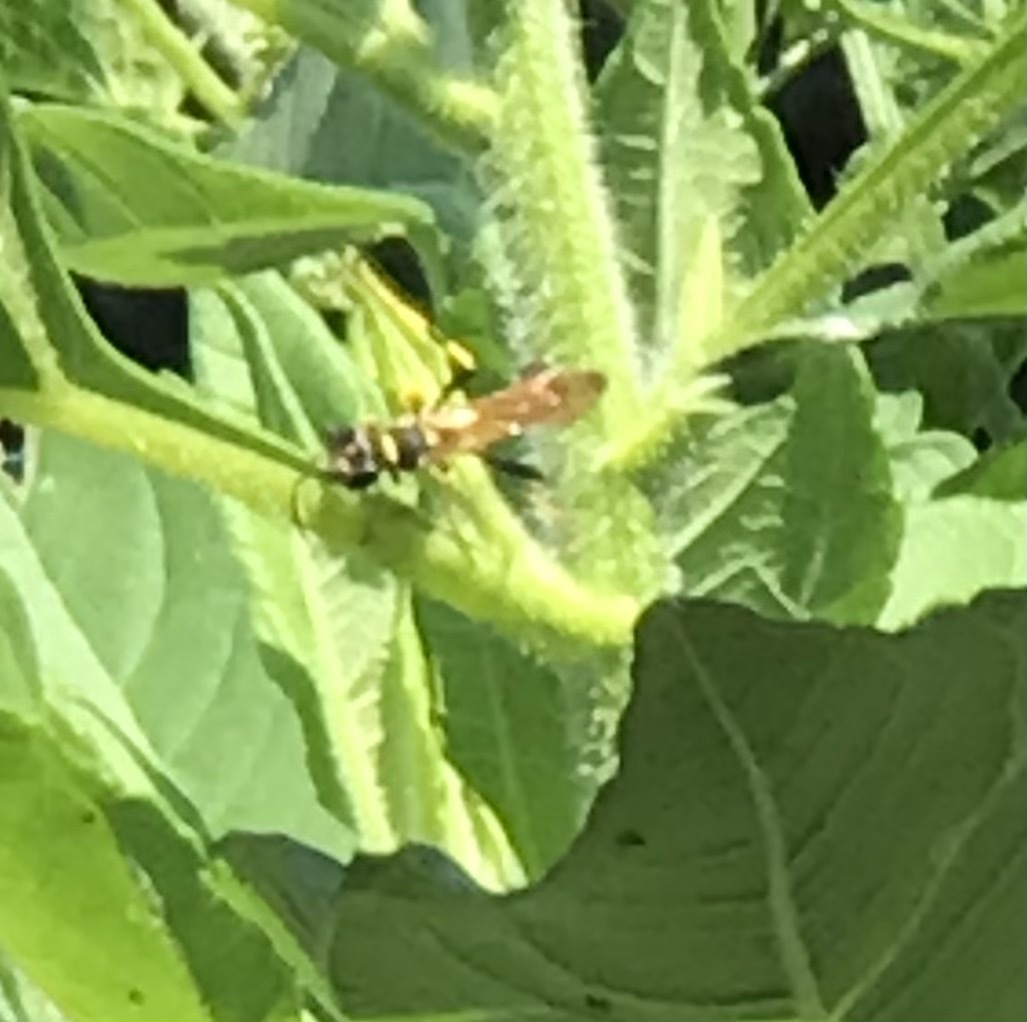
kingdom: Animalia
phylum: Arthropoda
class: Insecta
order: Hymenoptera
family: Sphecidae
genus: Sceliphron
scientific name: Sceliphron caementarium
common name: Mud dauber
